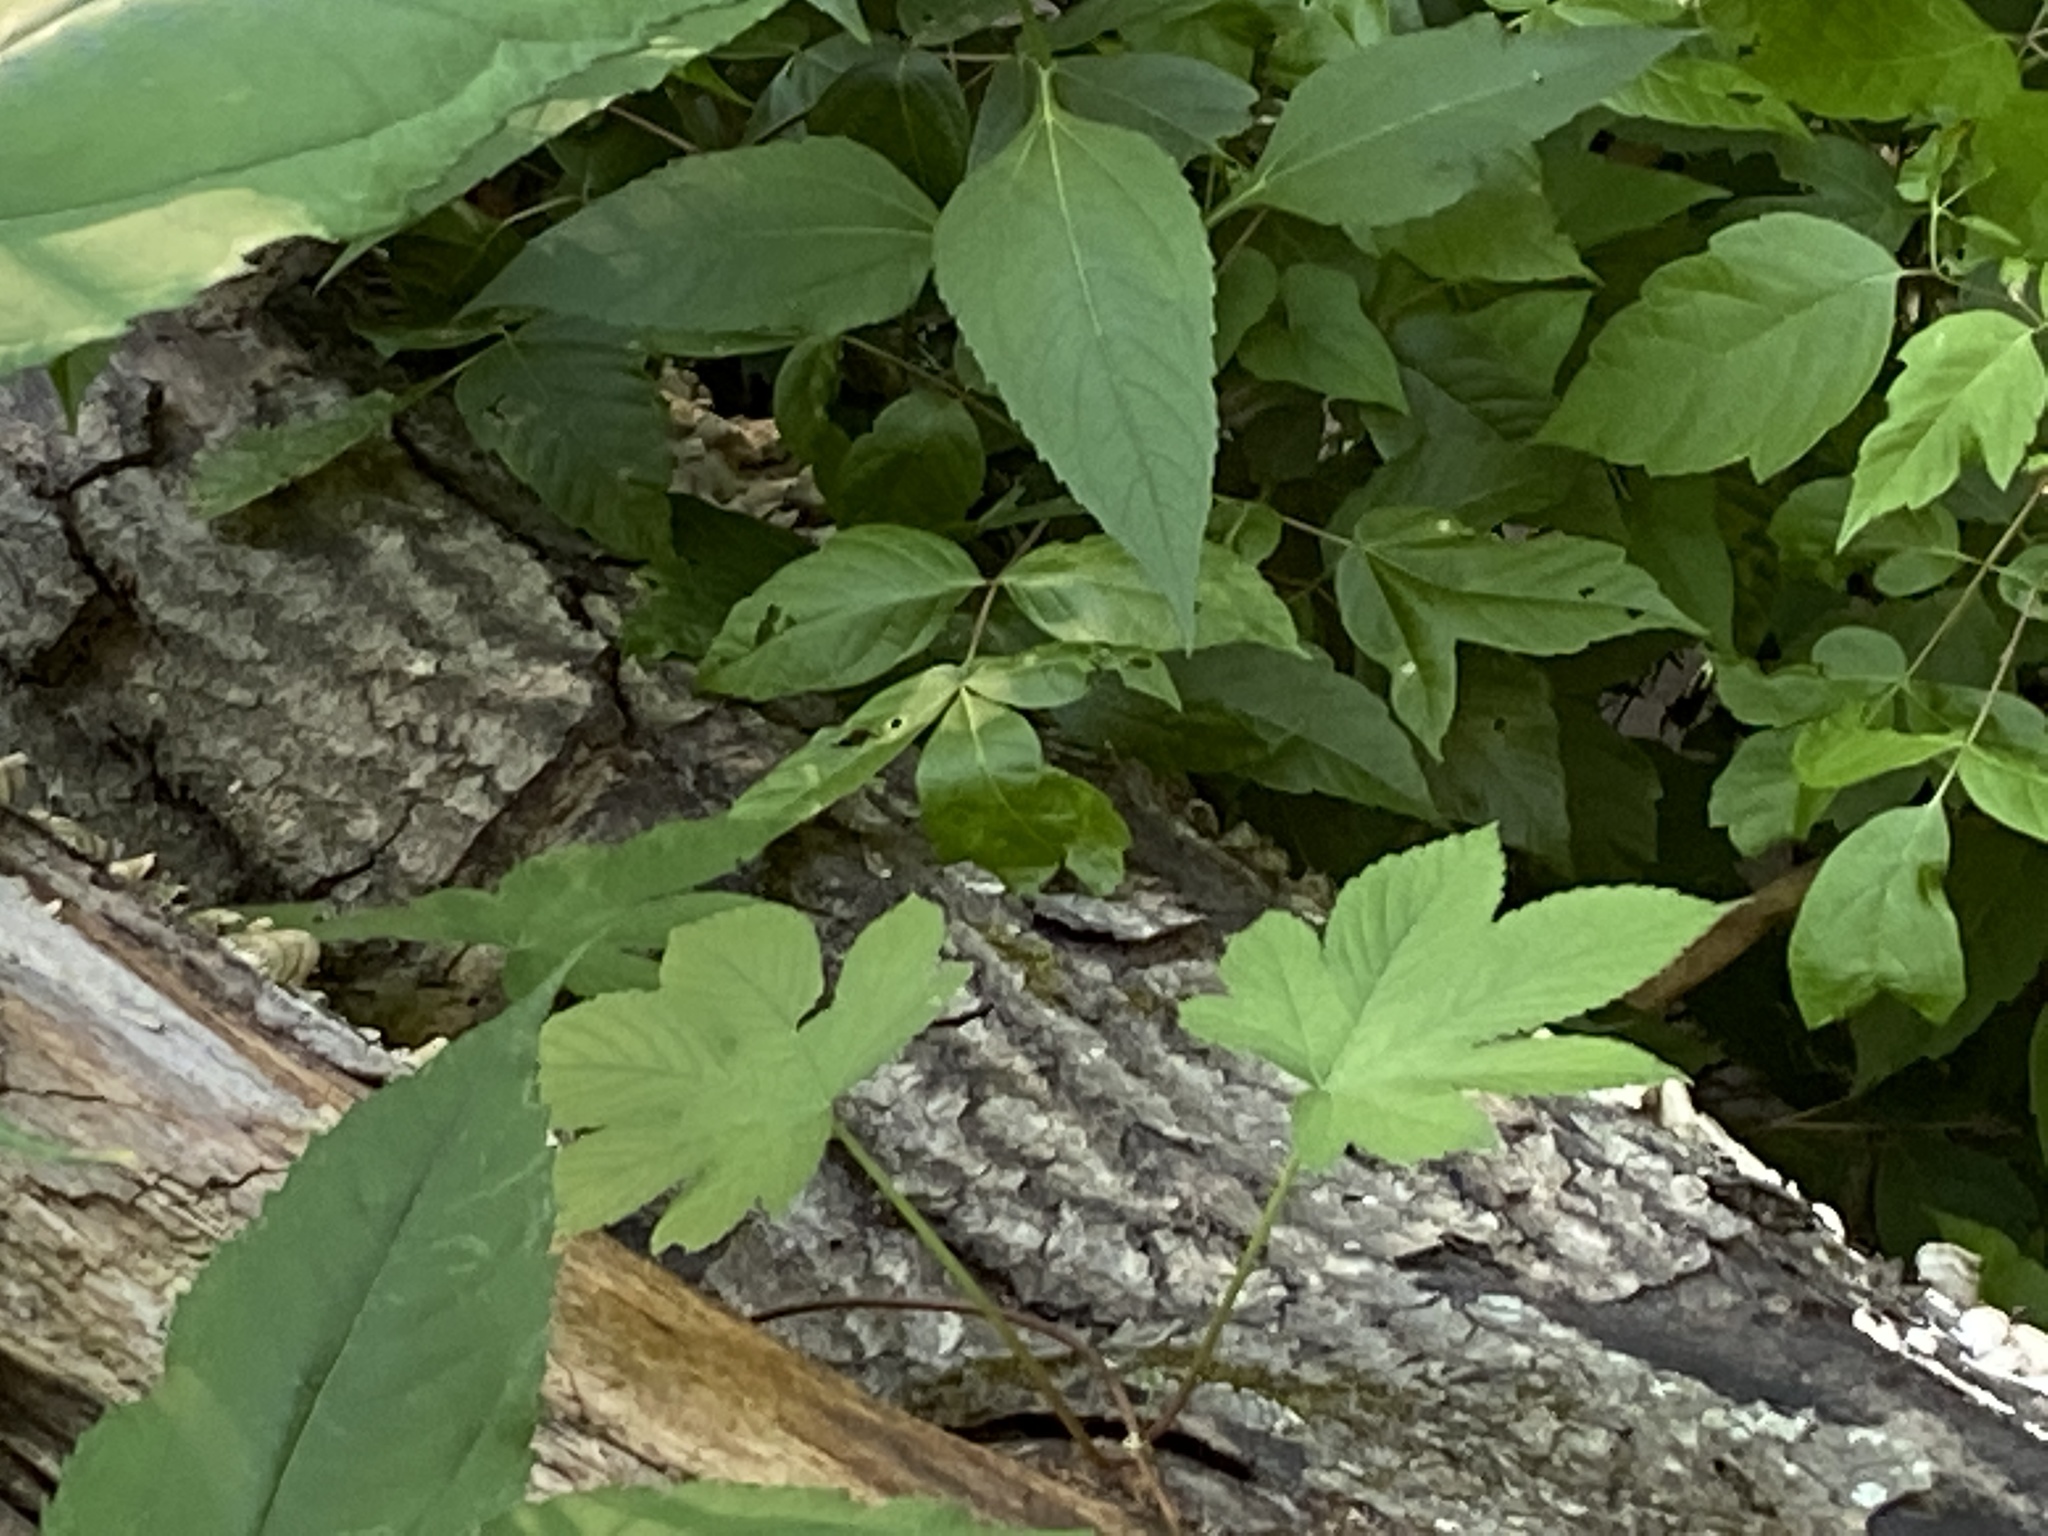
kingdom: Plantae
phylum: Tracheophyta
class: Magnoliopsida
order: Rosales
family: Cannabaceae
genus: Humulus
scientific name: Humulus scandens
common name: Japanese hop
